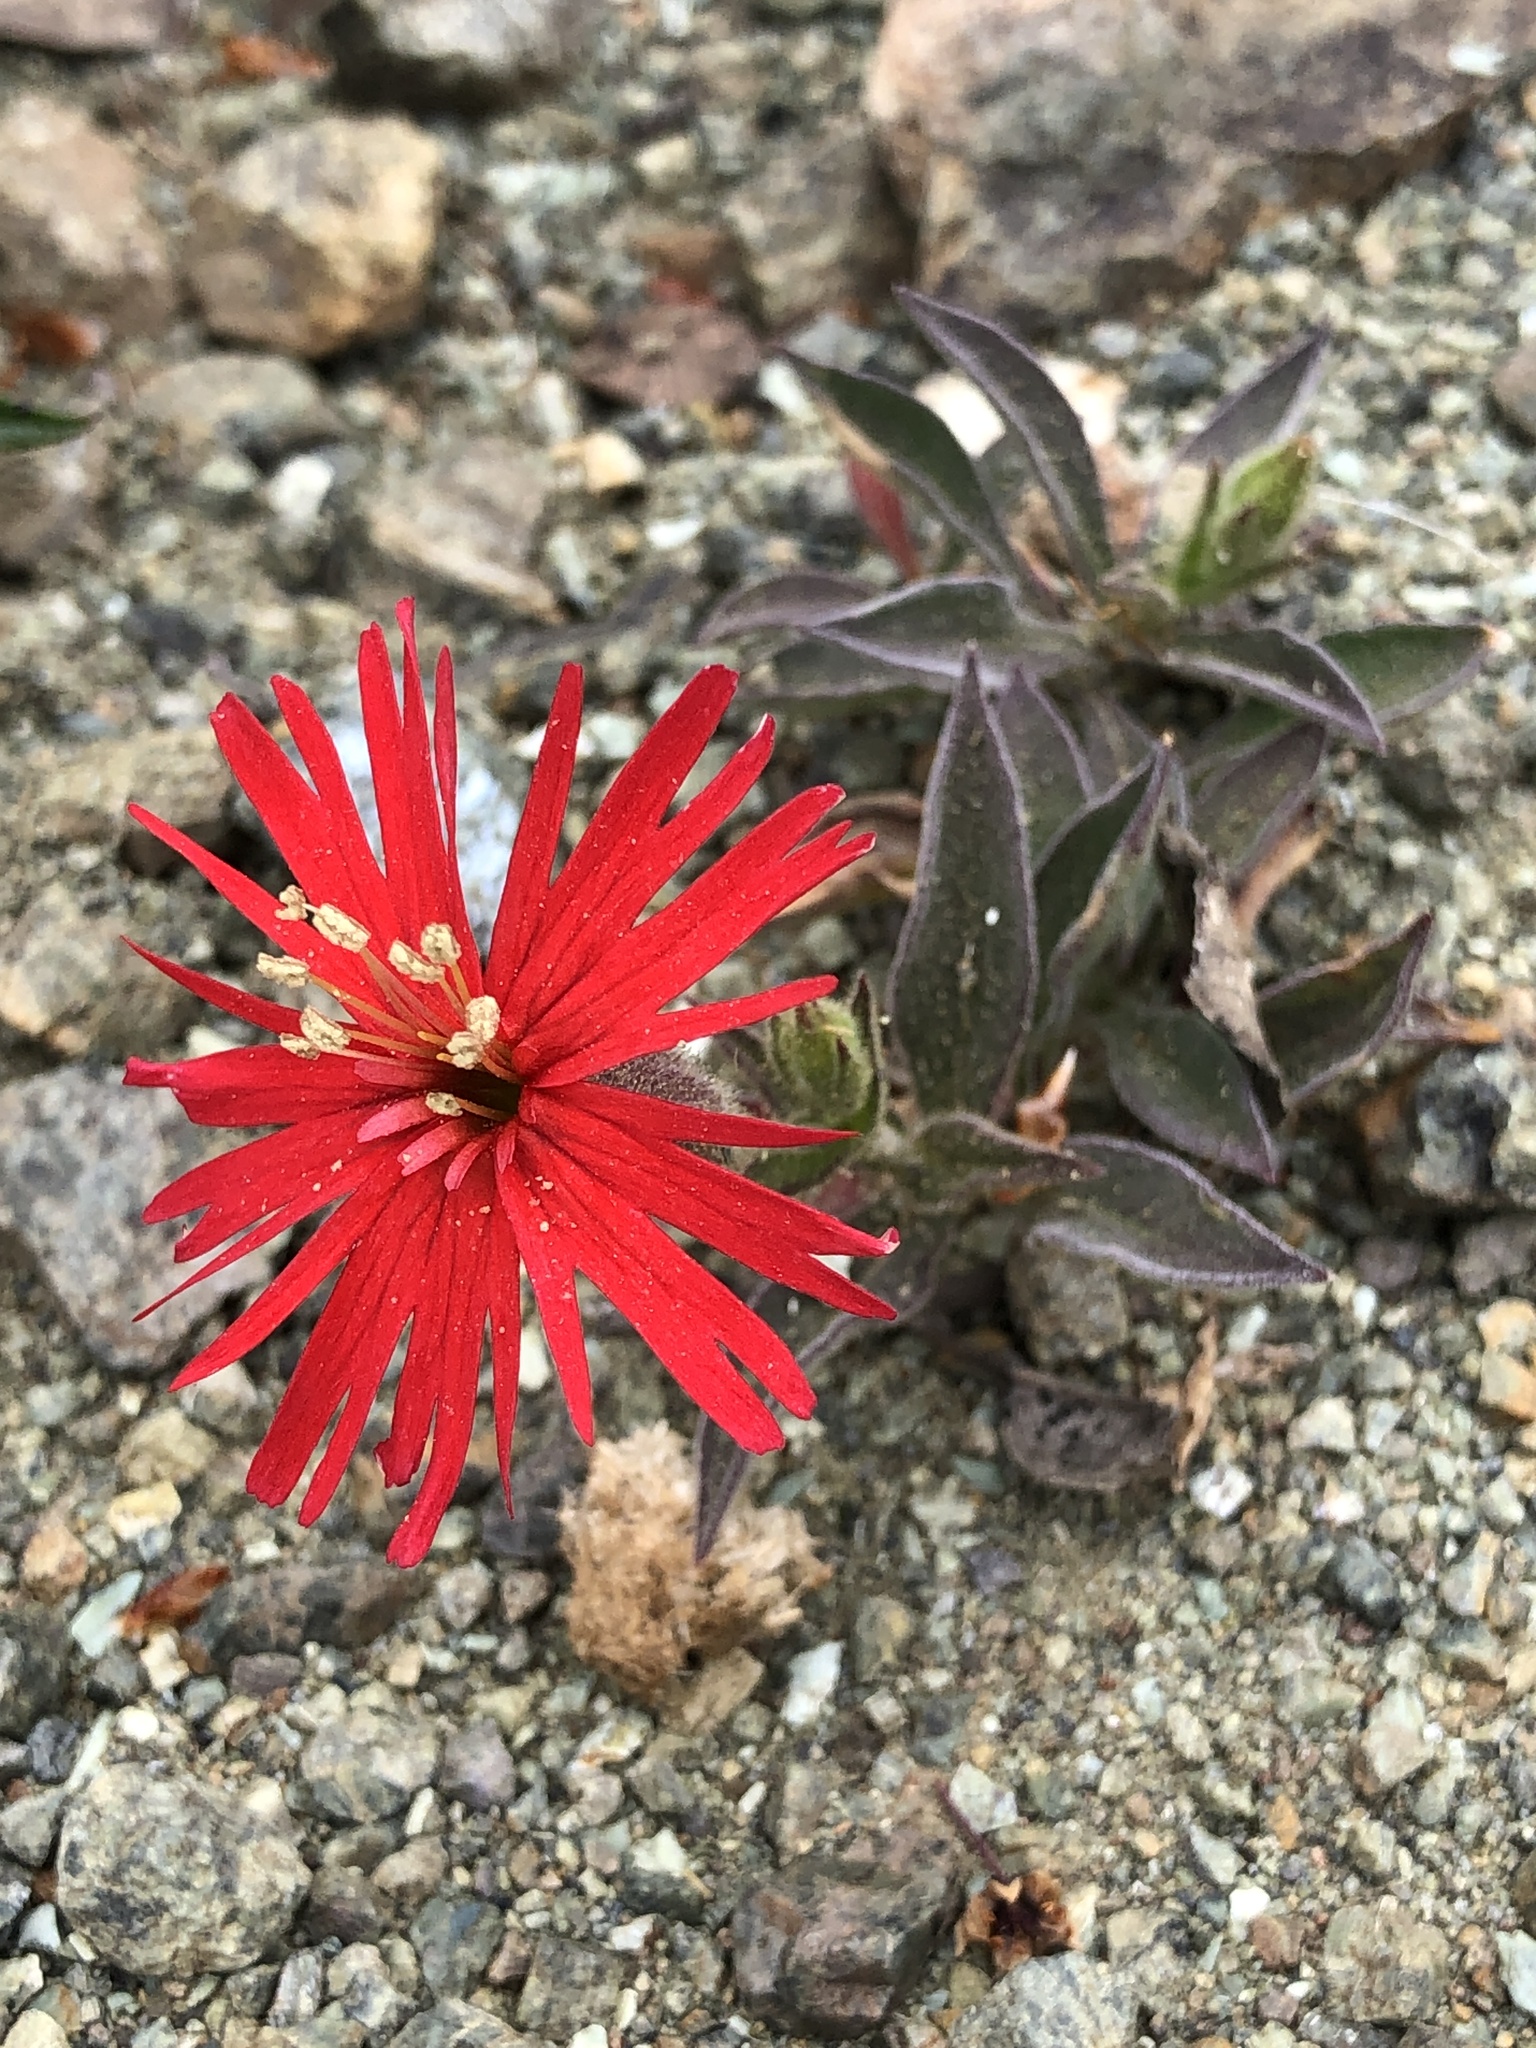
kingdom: Plantae
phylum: Tracheophyta
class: Magnoliopsida
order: Caryophyllales
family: Caryophyllaceae
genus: Silene
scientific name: Silene laciniata
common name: Indian-pink
